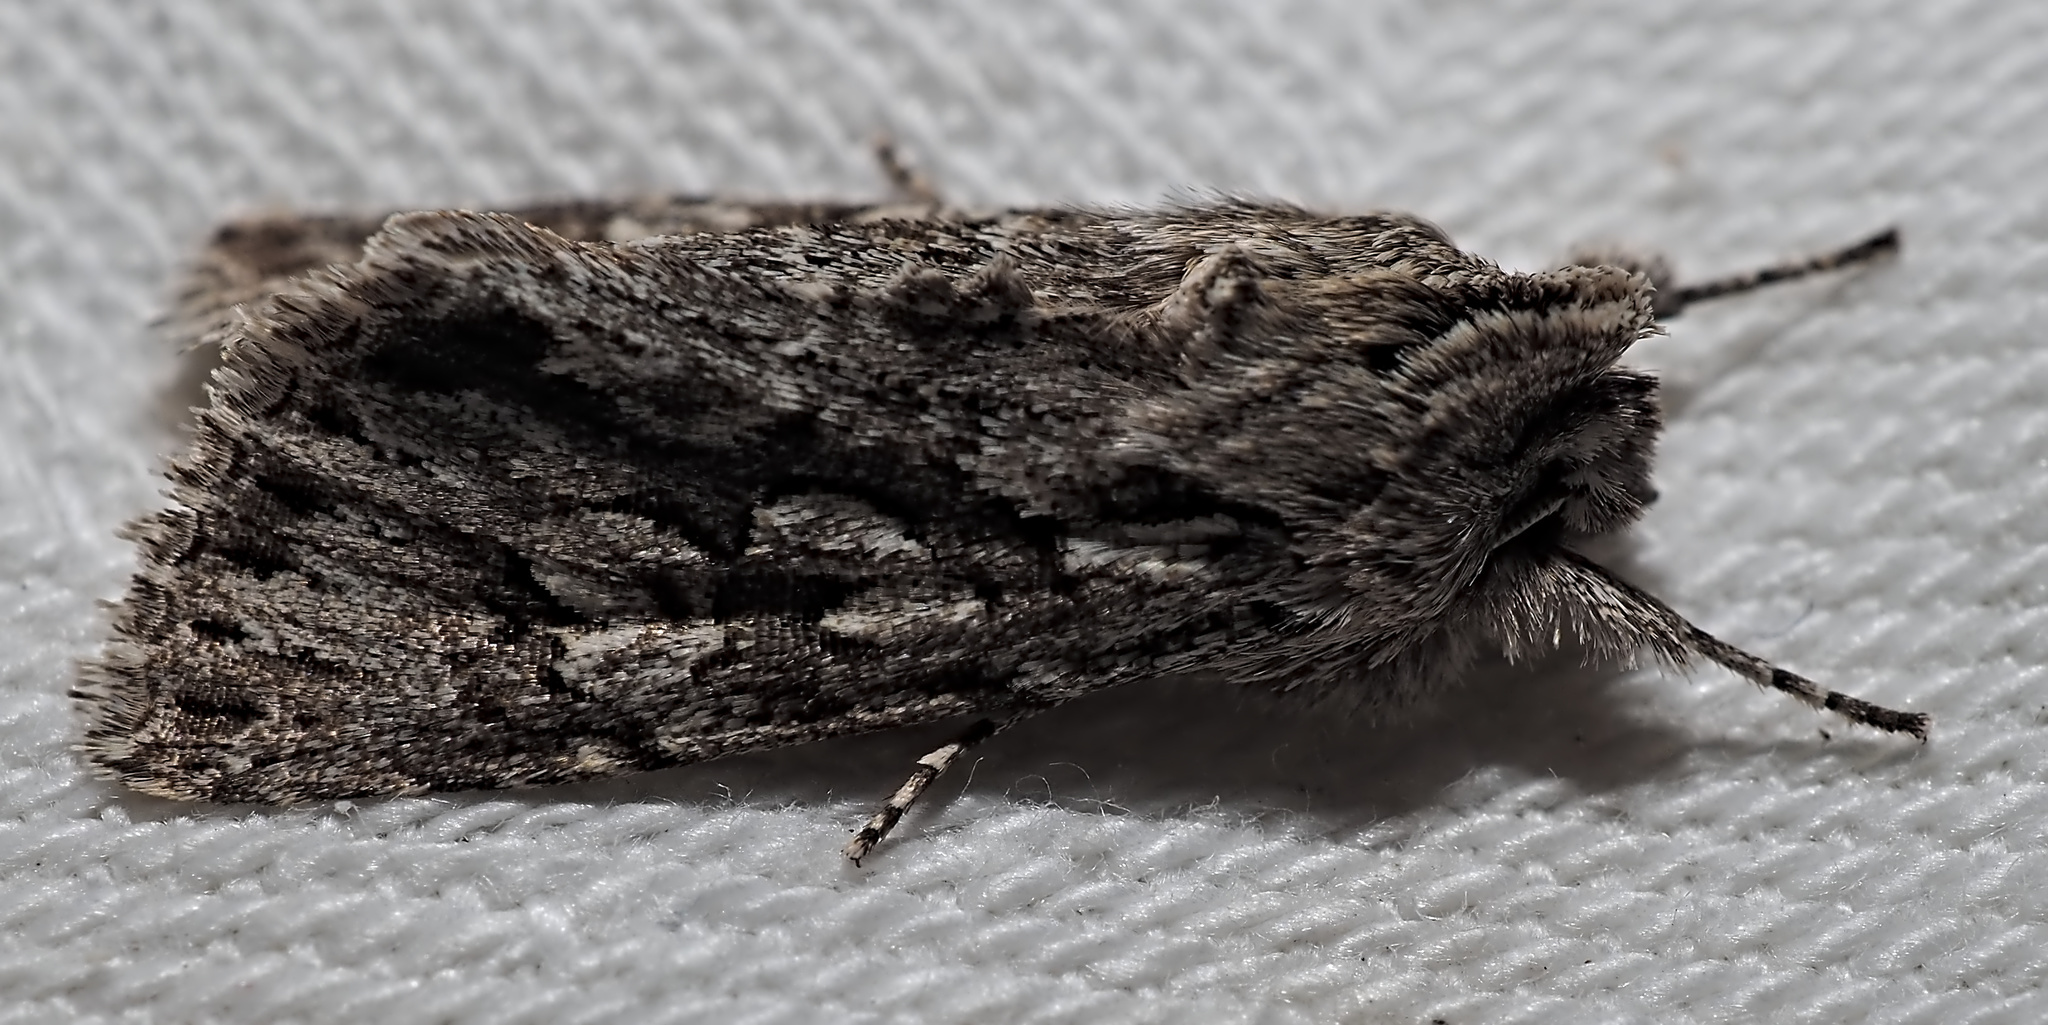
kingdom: Animalia
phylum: Arthropoda
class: Insecta
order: Lepidoptera
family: Noctuidae
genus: Xylocampa
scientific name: Xylocampa areola
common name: Early grey
